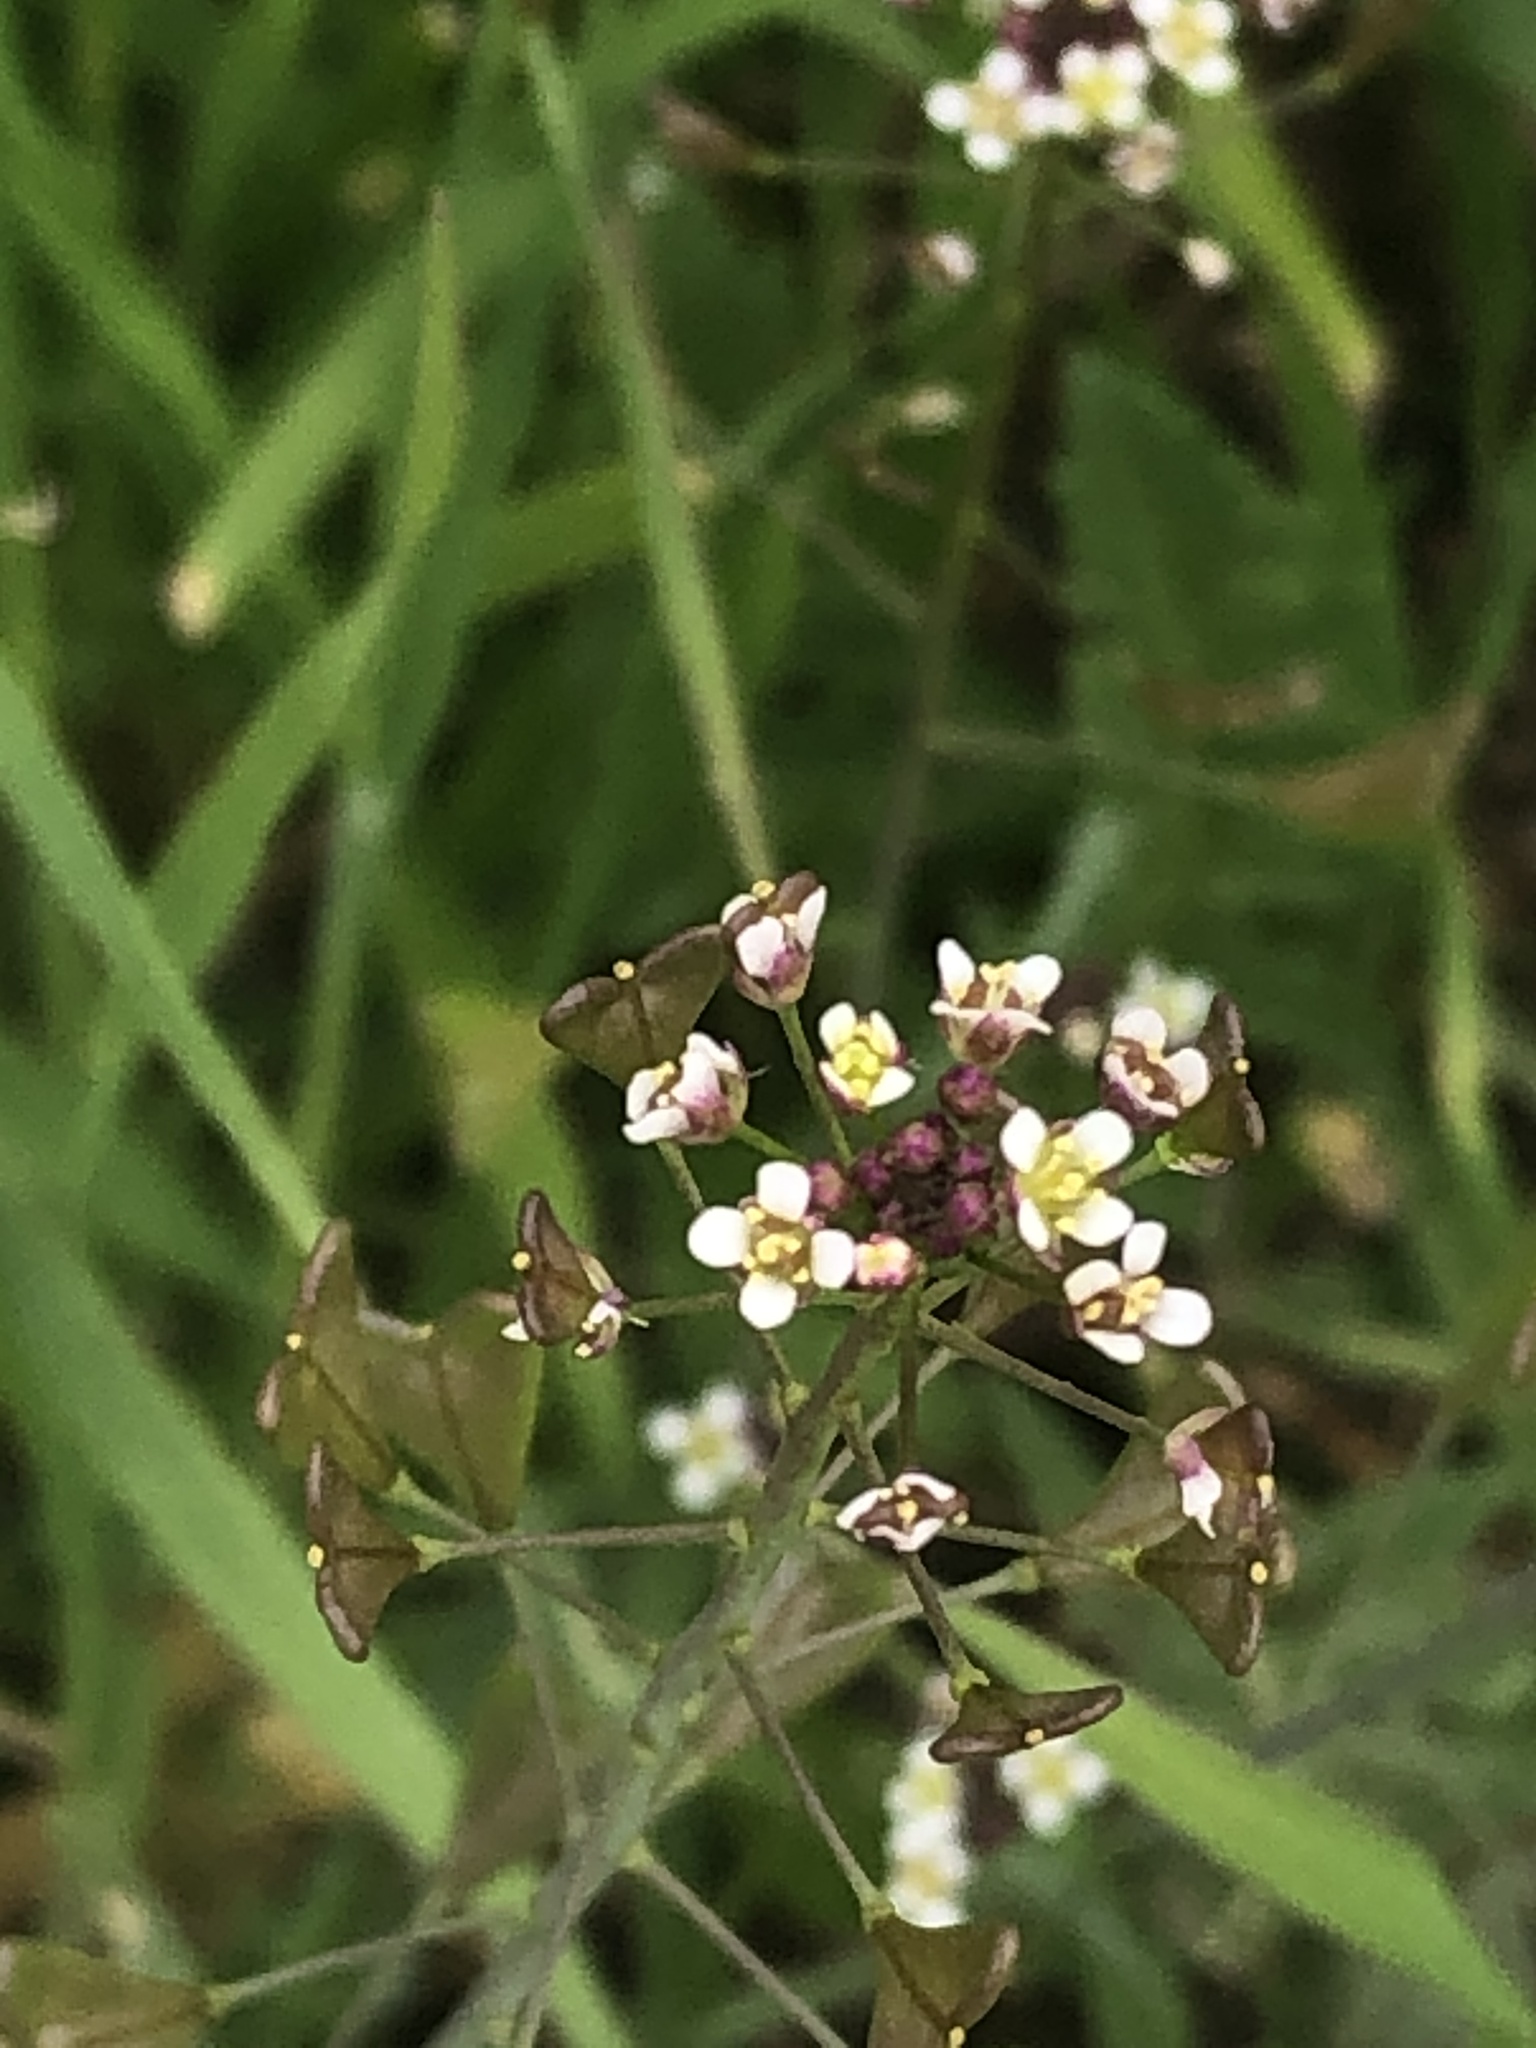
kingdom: Plantae
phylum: Tracheophyta
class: Magnoliopsida
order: Brassicales
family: Brassicaceae
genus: Capsella
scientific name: Capsella bursa-pastoris
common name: Shepherd's purse
